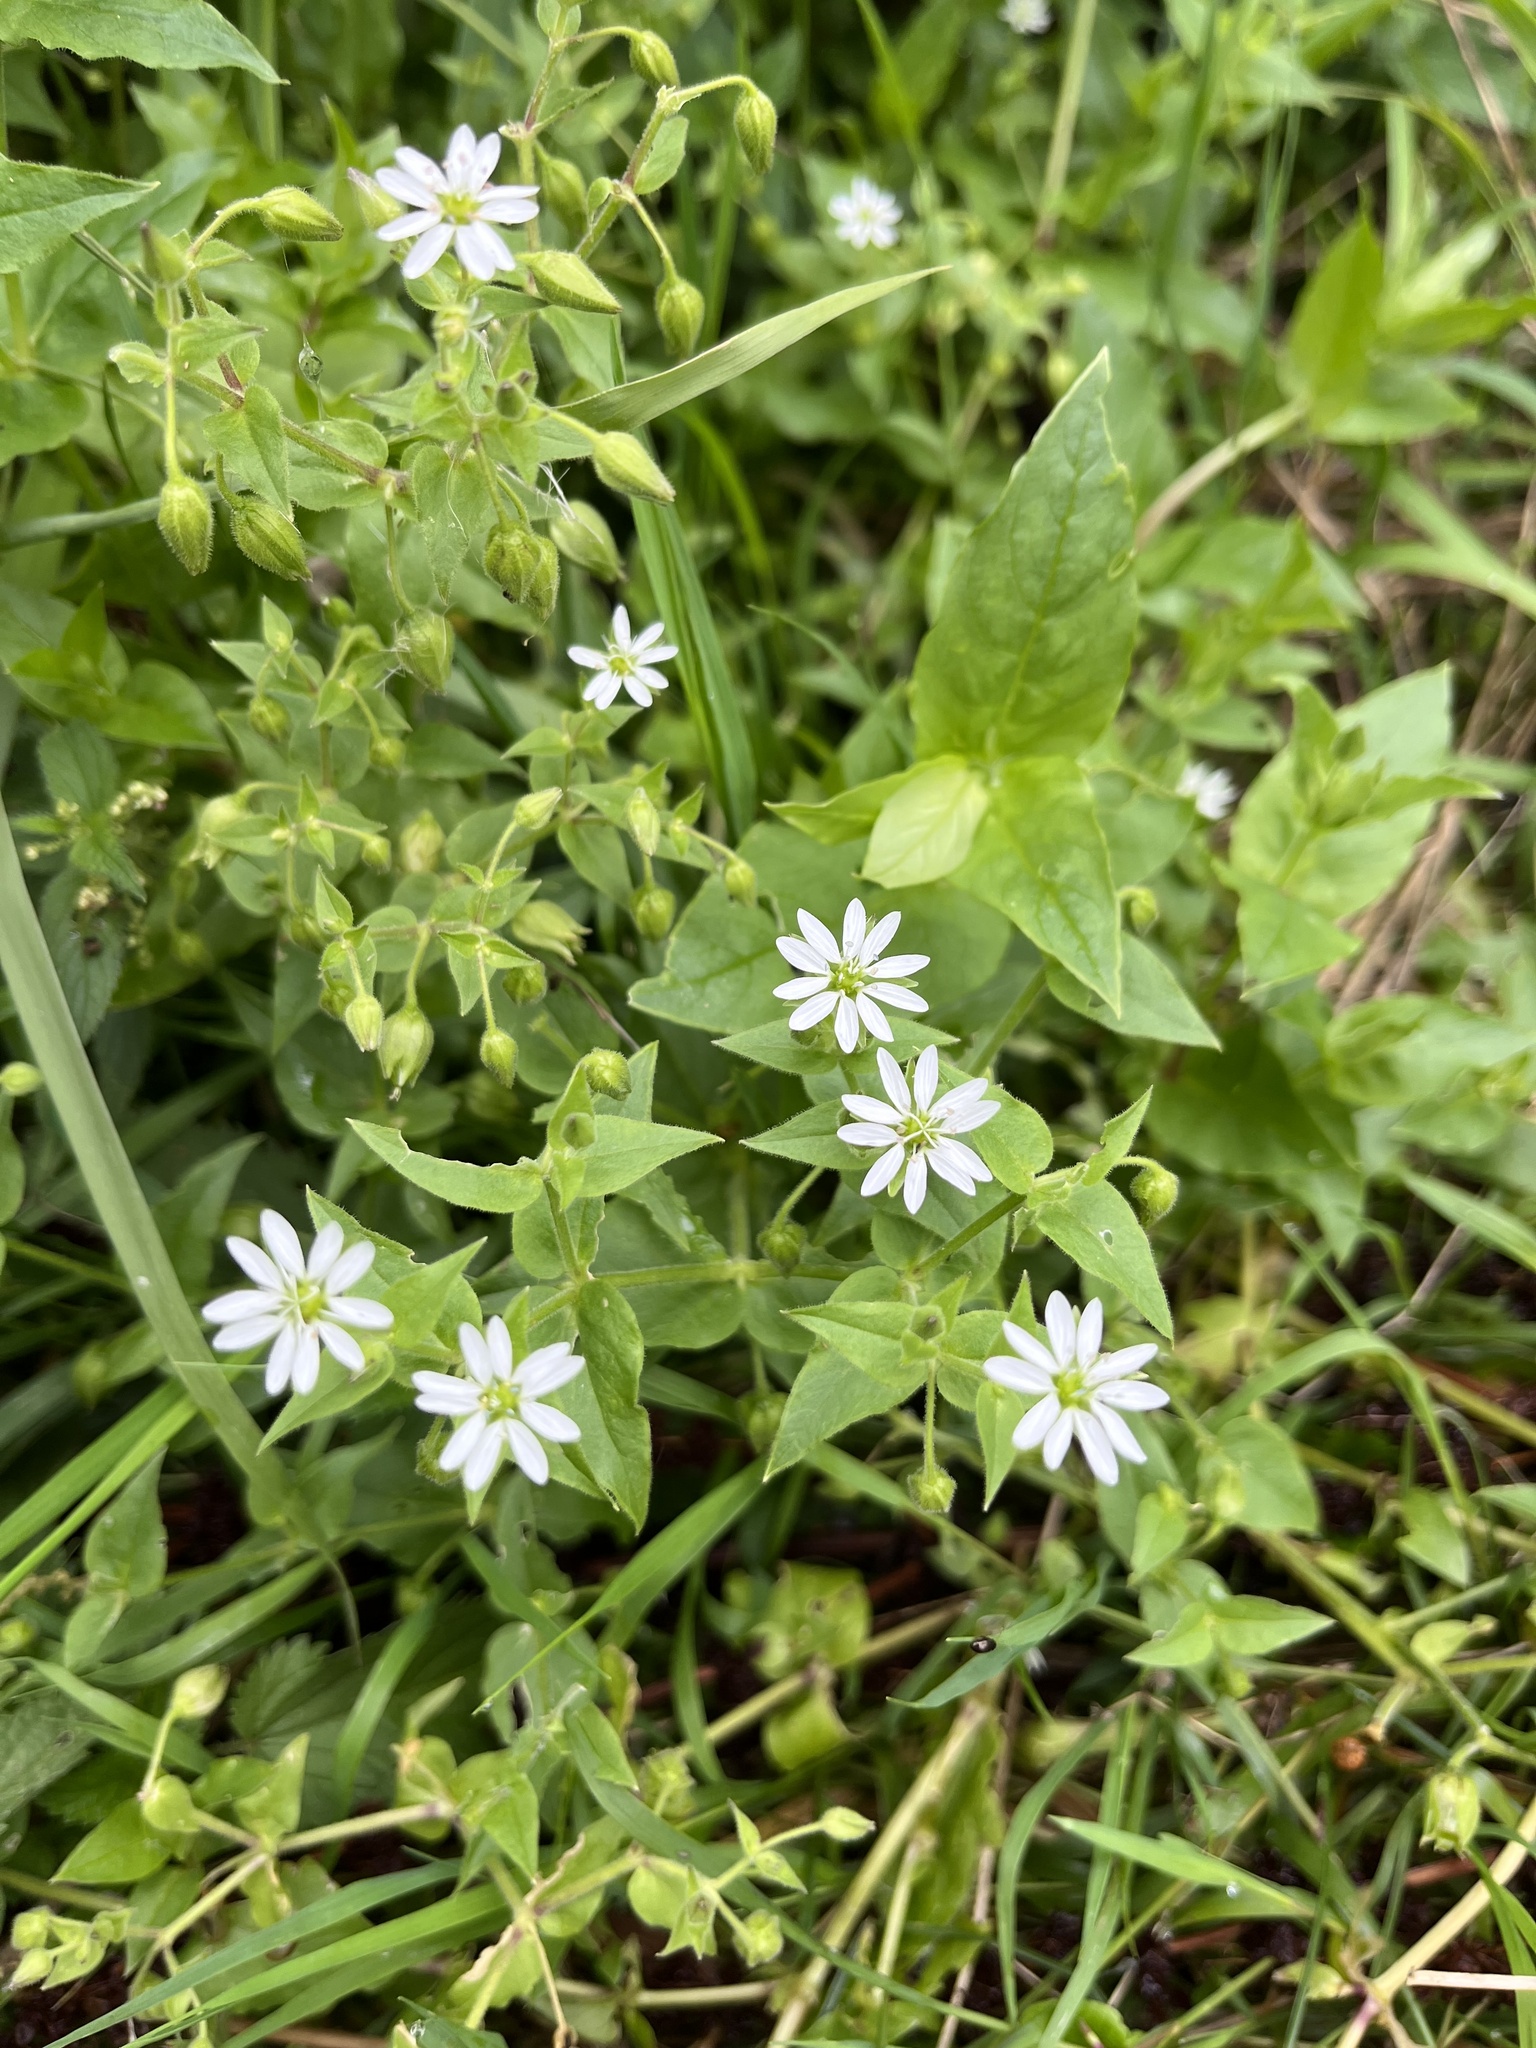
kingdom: Plantae
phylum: Tracheophyta
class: Magnoliopsida
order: Caryophyllales
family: Caryophyllaceae
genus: Stellaria
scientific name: Stellaria aquatica
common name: Water chickweed
